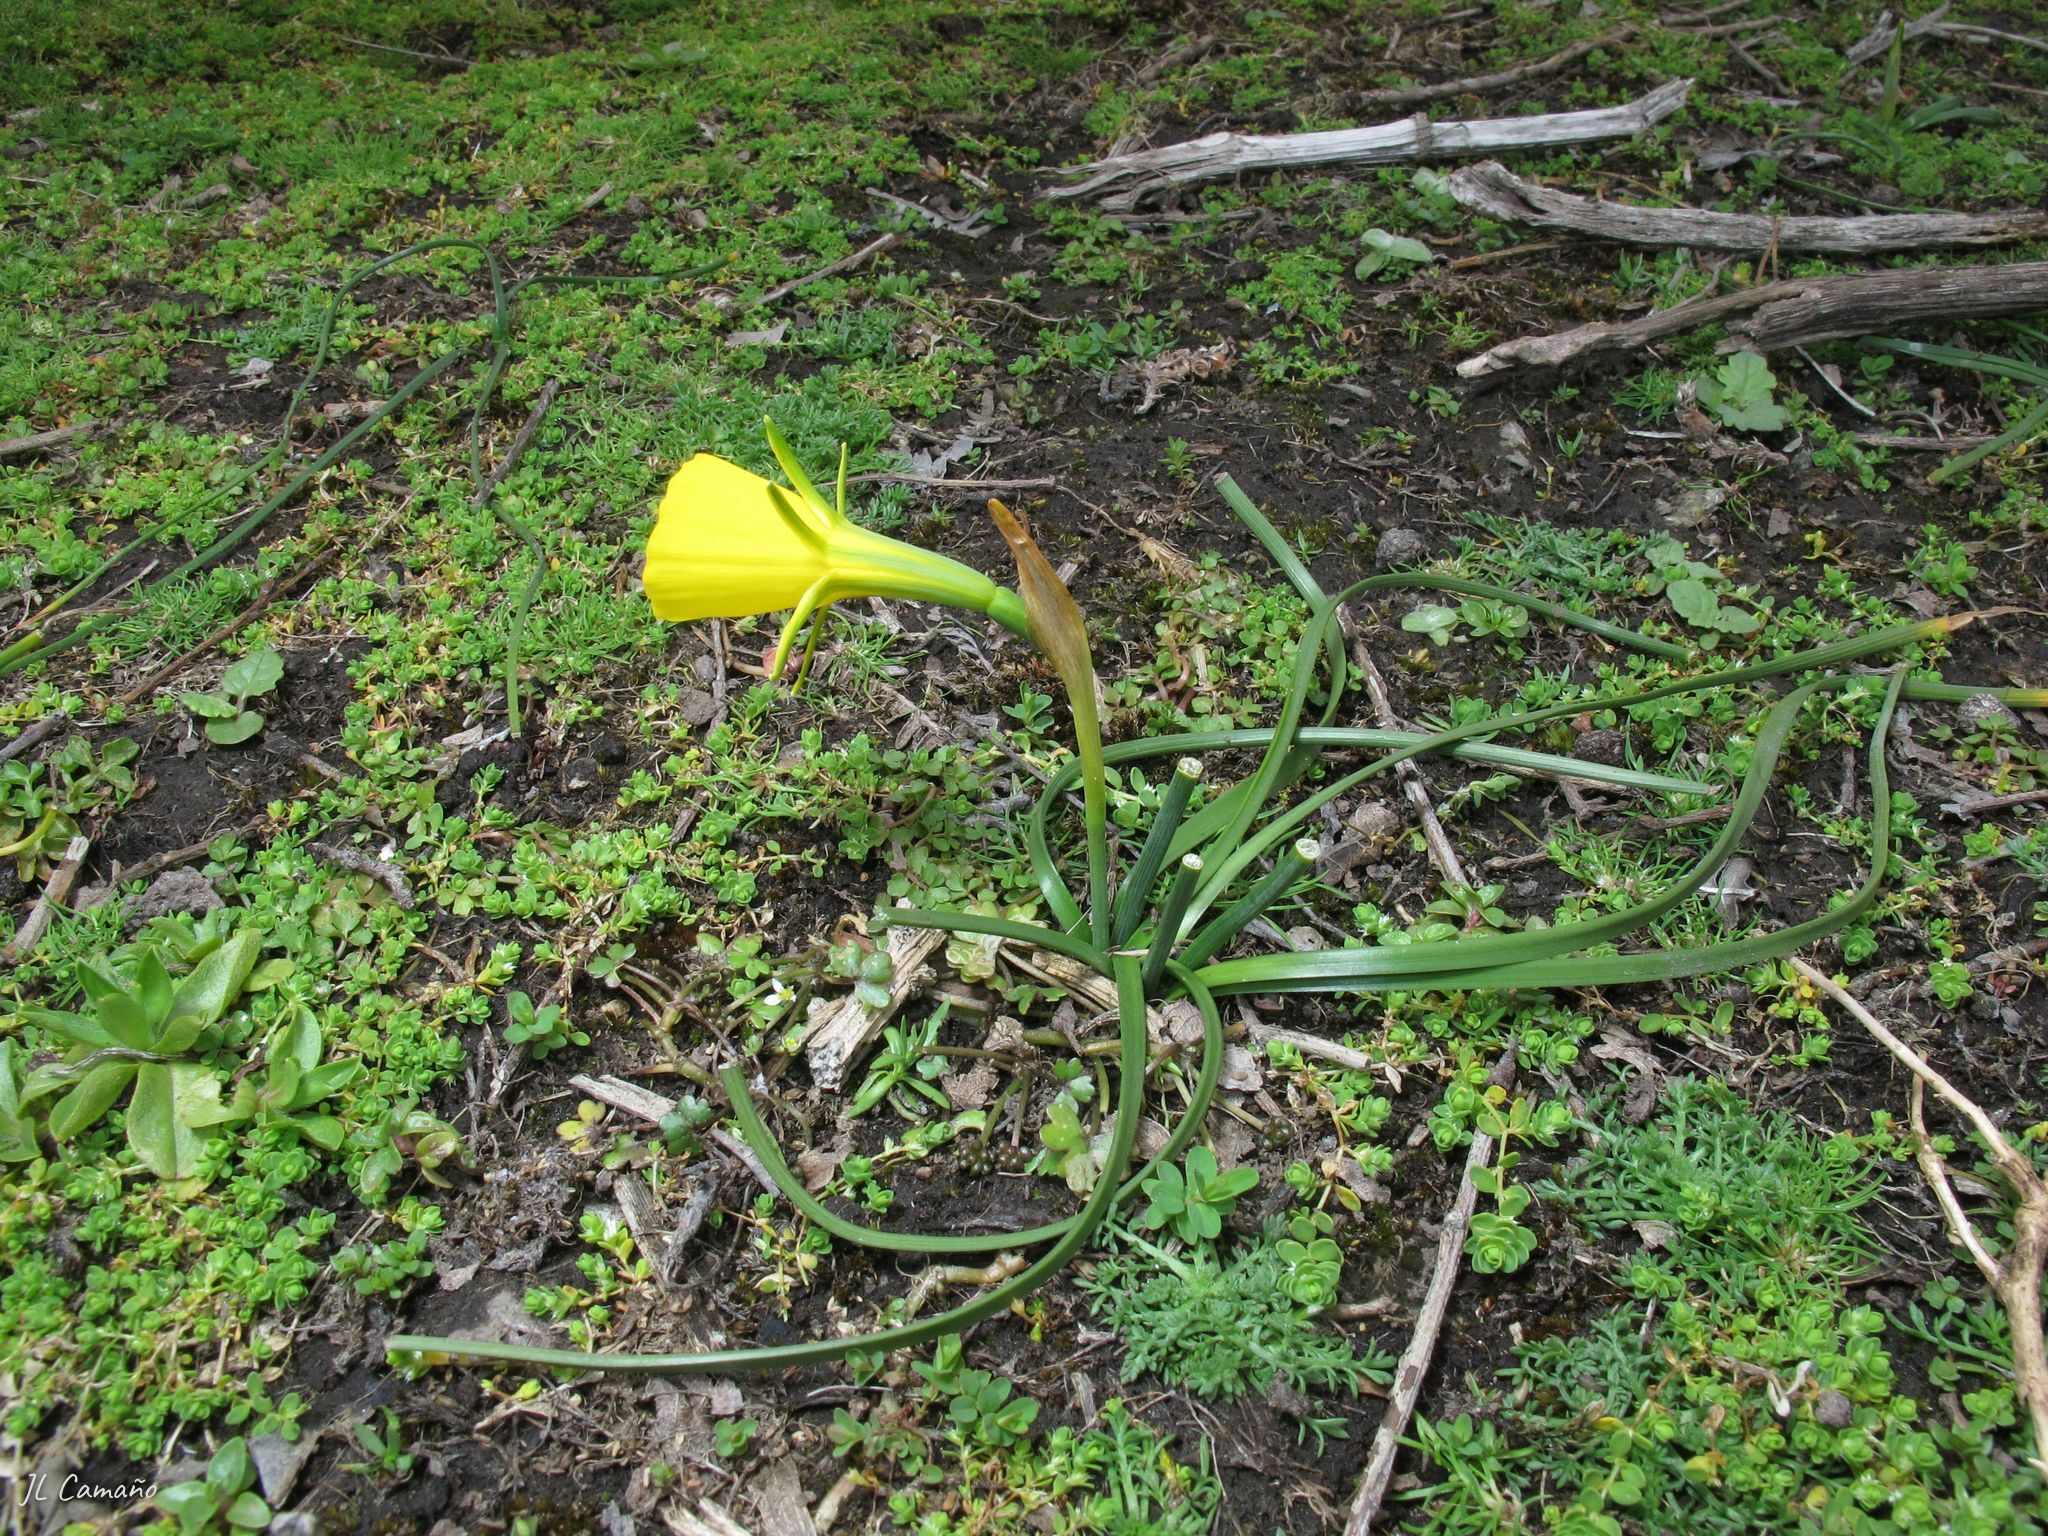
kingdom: Plantae
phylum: Tracheophyta
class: Liliopsida
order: Asparagales
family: Amaryllidaceae
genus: Narcissus
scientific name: Narcissus bulbocodium
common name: Hoop-petticoat daffodil
